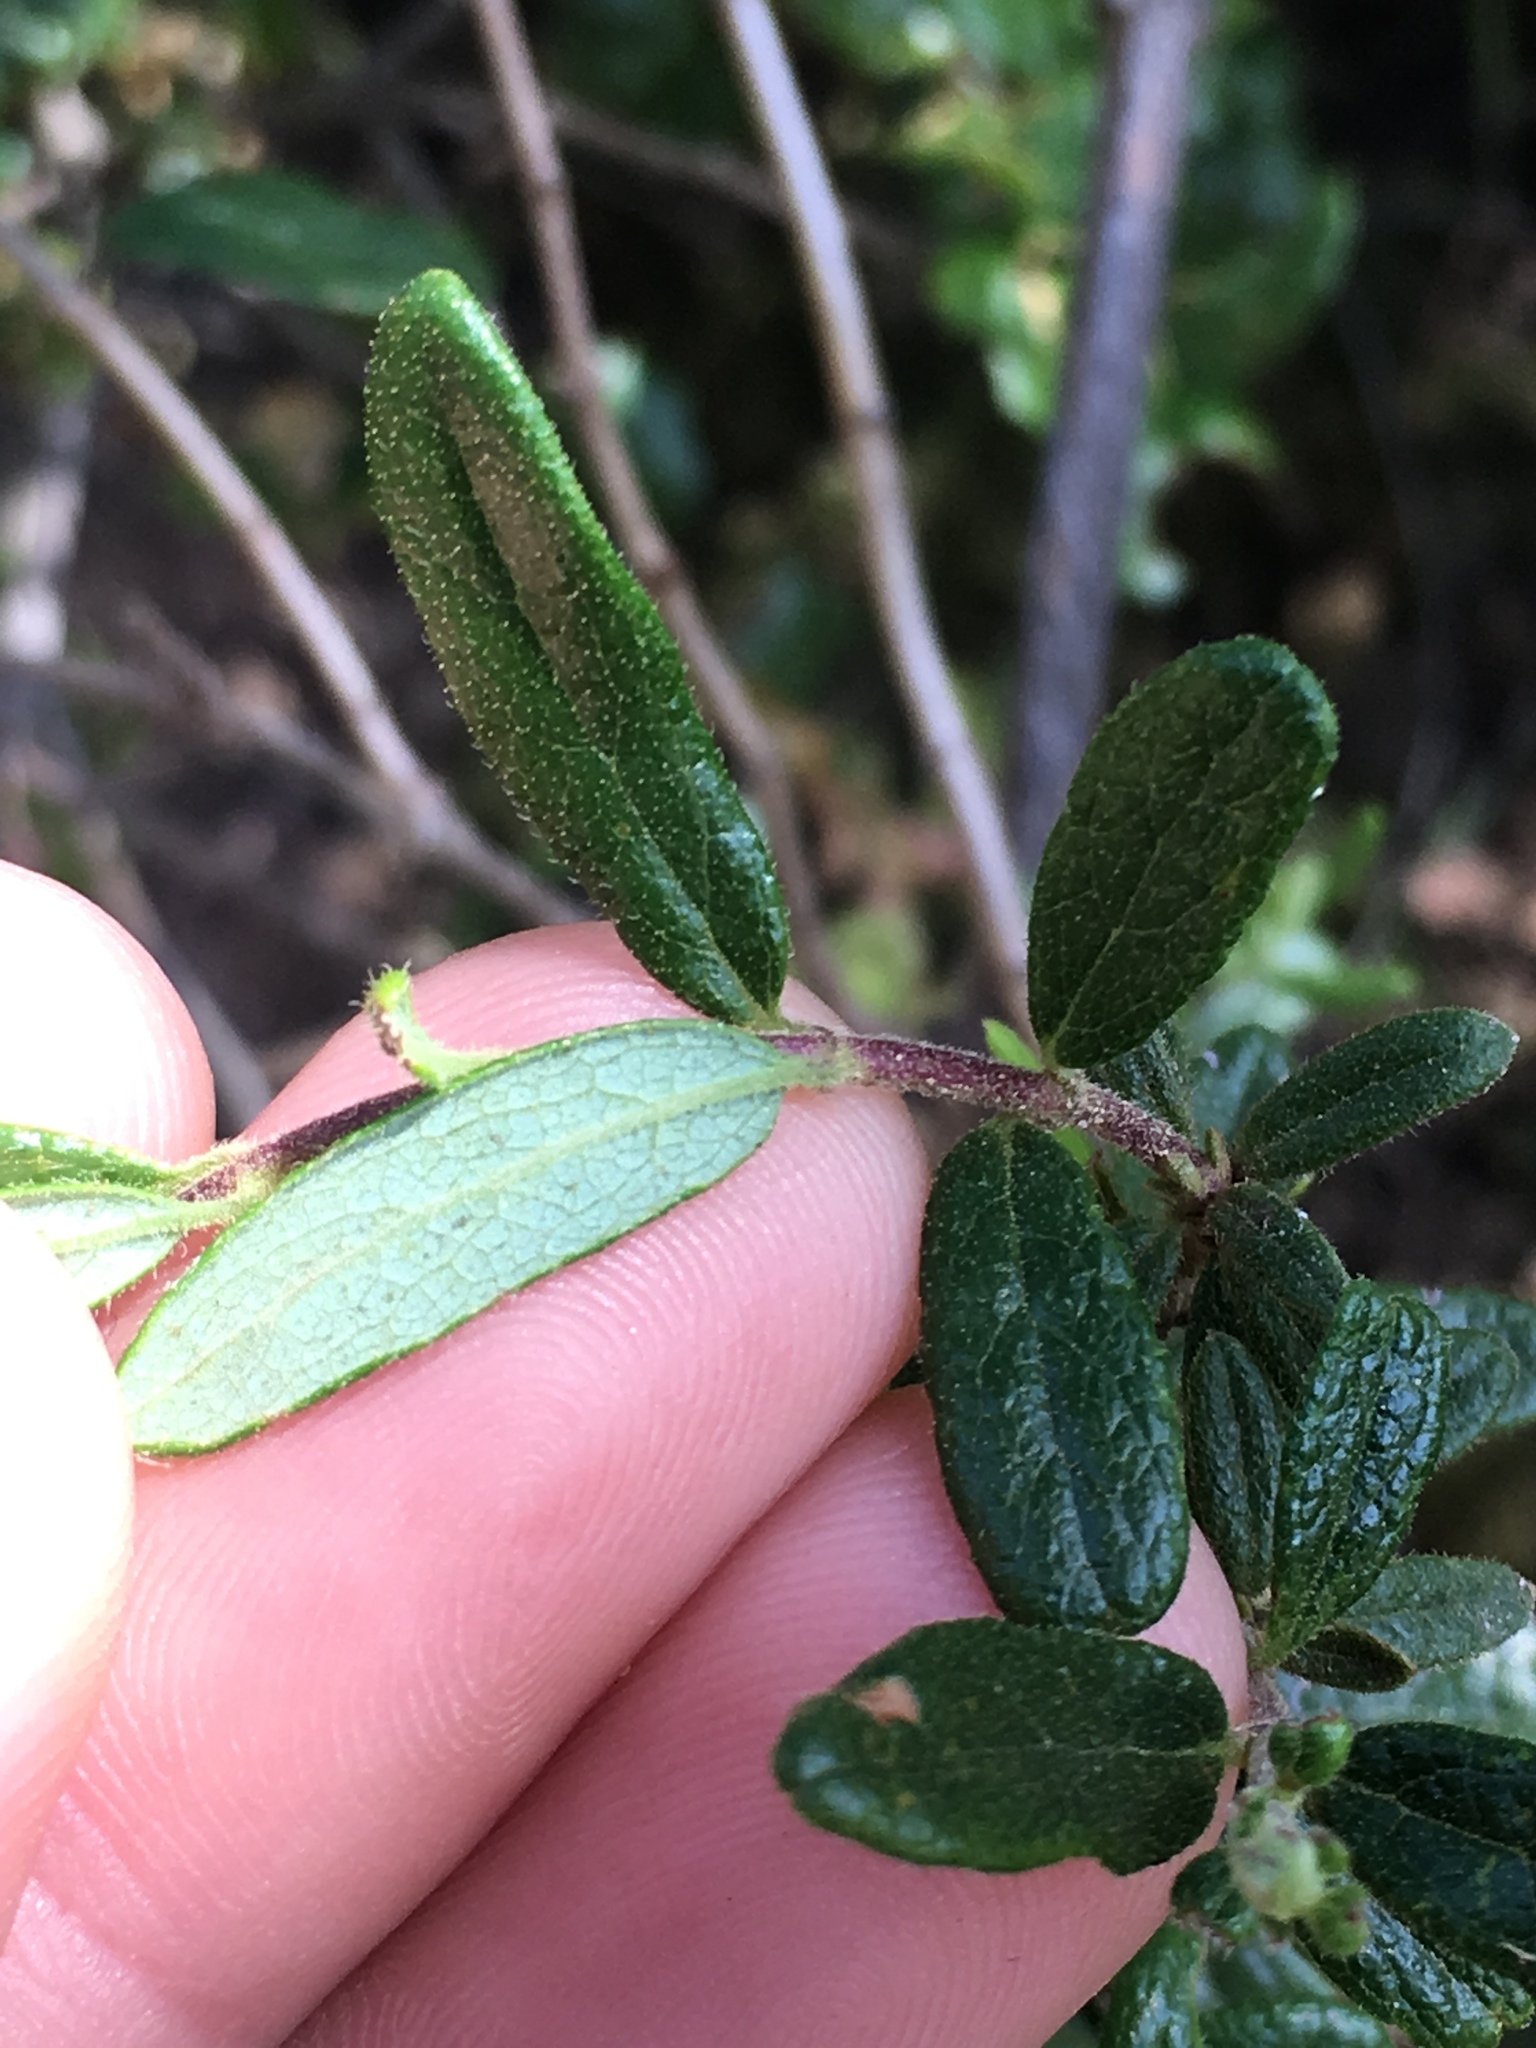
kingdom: Plantae
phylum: Tracheophyta
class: Magnoliopsida
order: Dipsacales
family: Caprifoliaceae
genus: Lonicera
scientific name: Lonicera subspicata
